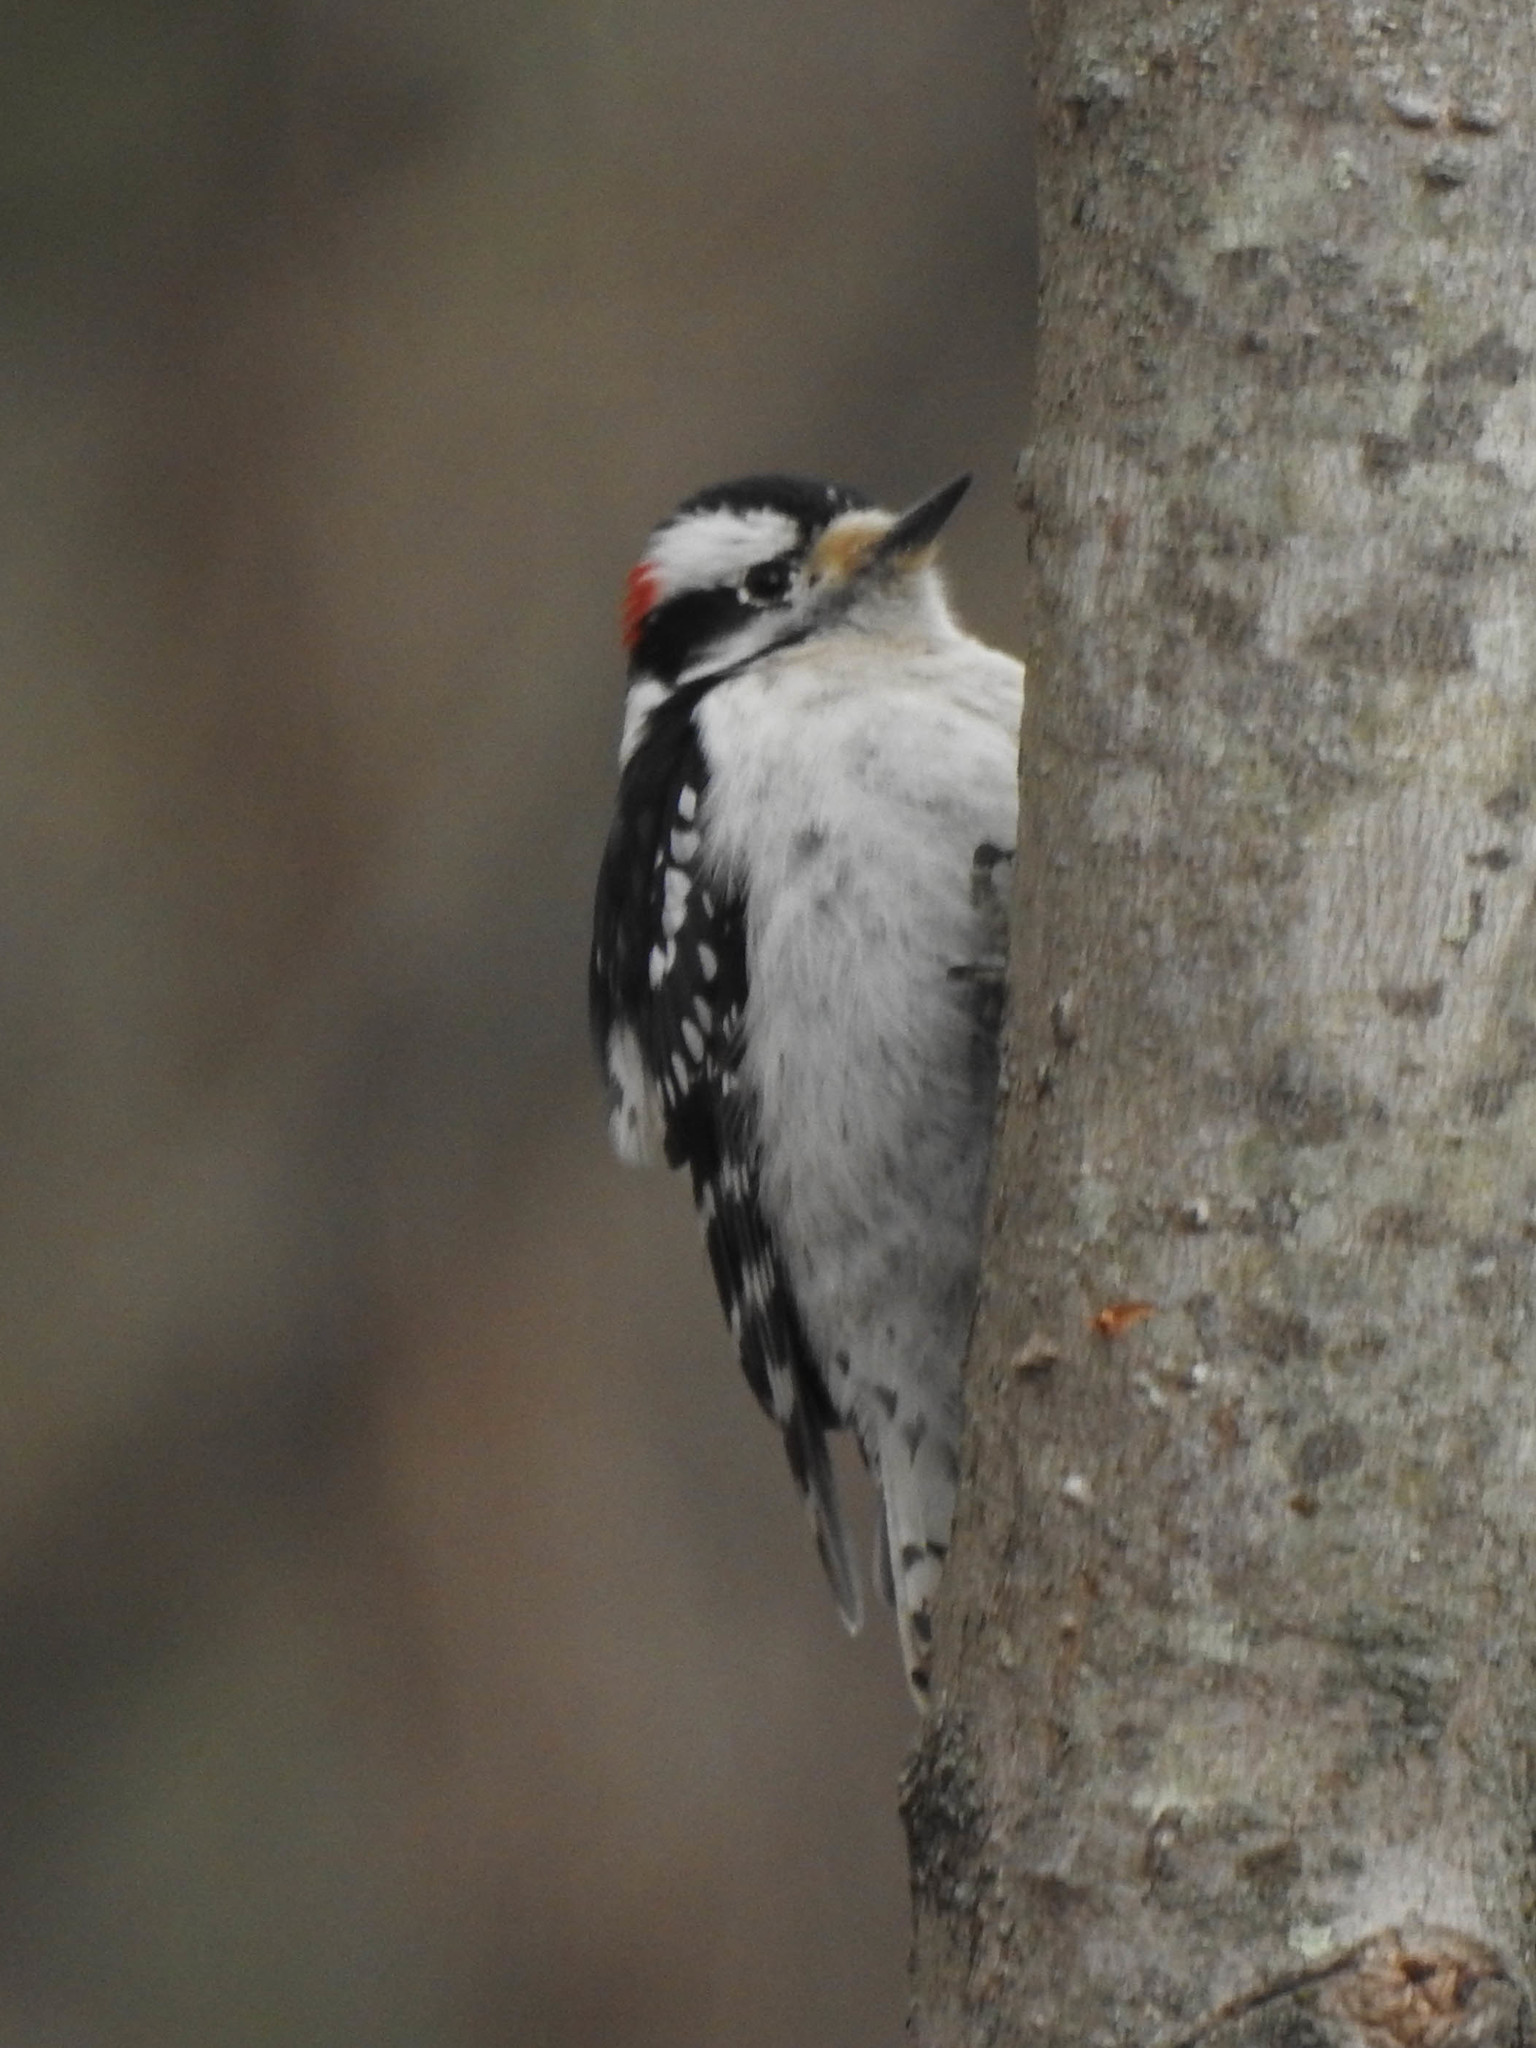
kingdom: Animalia
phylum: Chordata
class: Aves
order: Piciformes
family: Picidae
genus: Dryobates
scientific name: Dryobates pubescens
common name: Downy woodpecker
